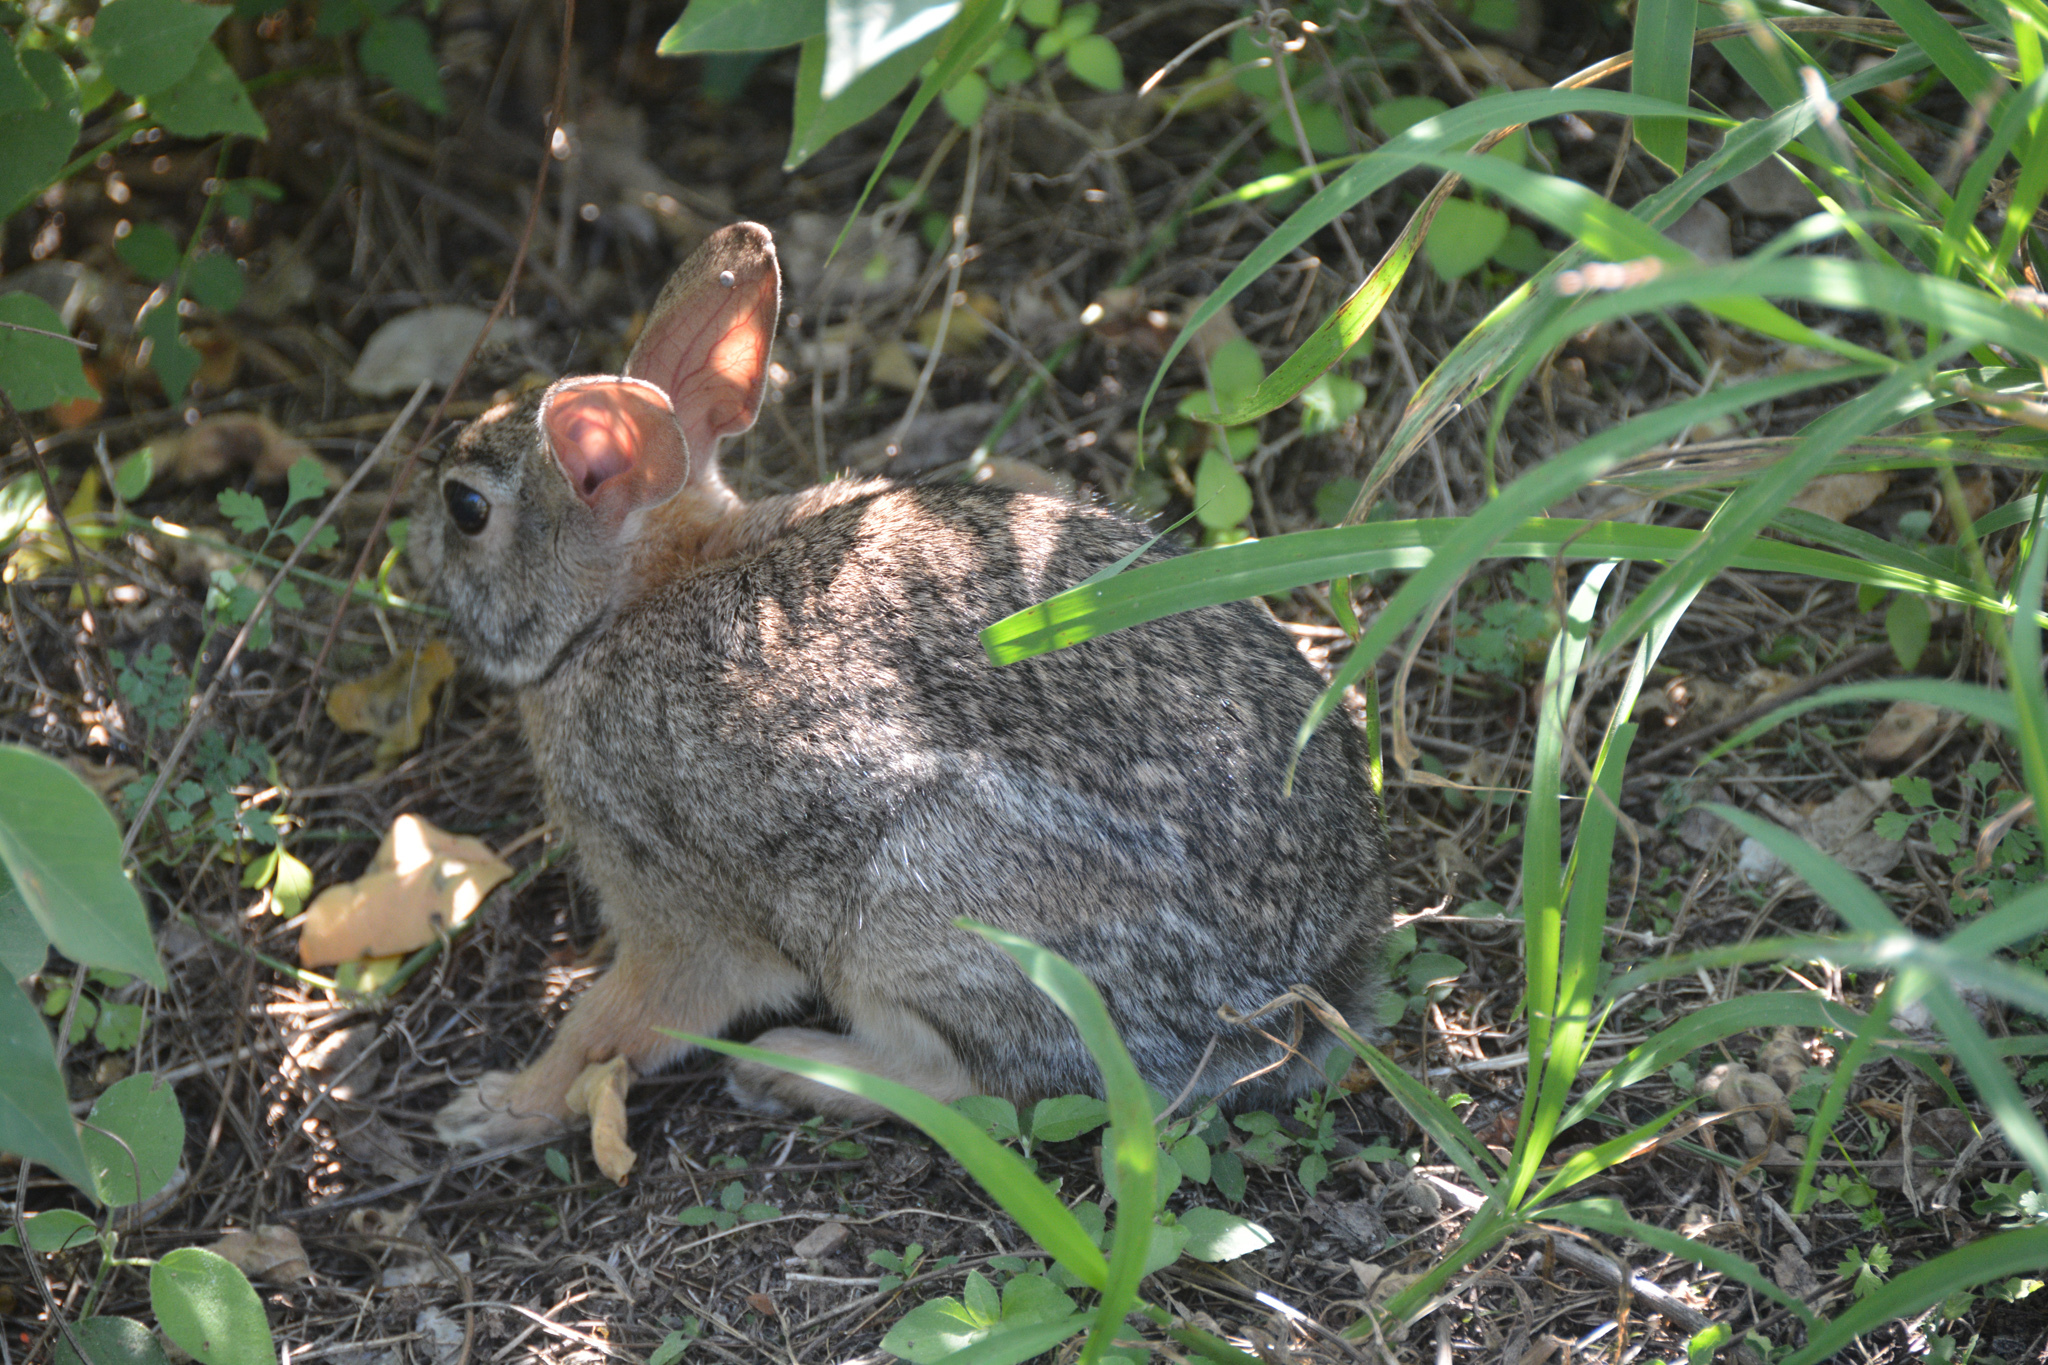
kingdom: Animalia
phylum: Chordata
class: Mammalia
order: Lagomorpha
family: Leporidae
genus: Sylvilagus
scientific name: Sylvilagus floridanus
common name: Eastern cottontail
